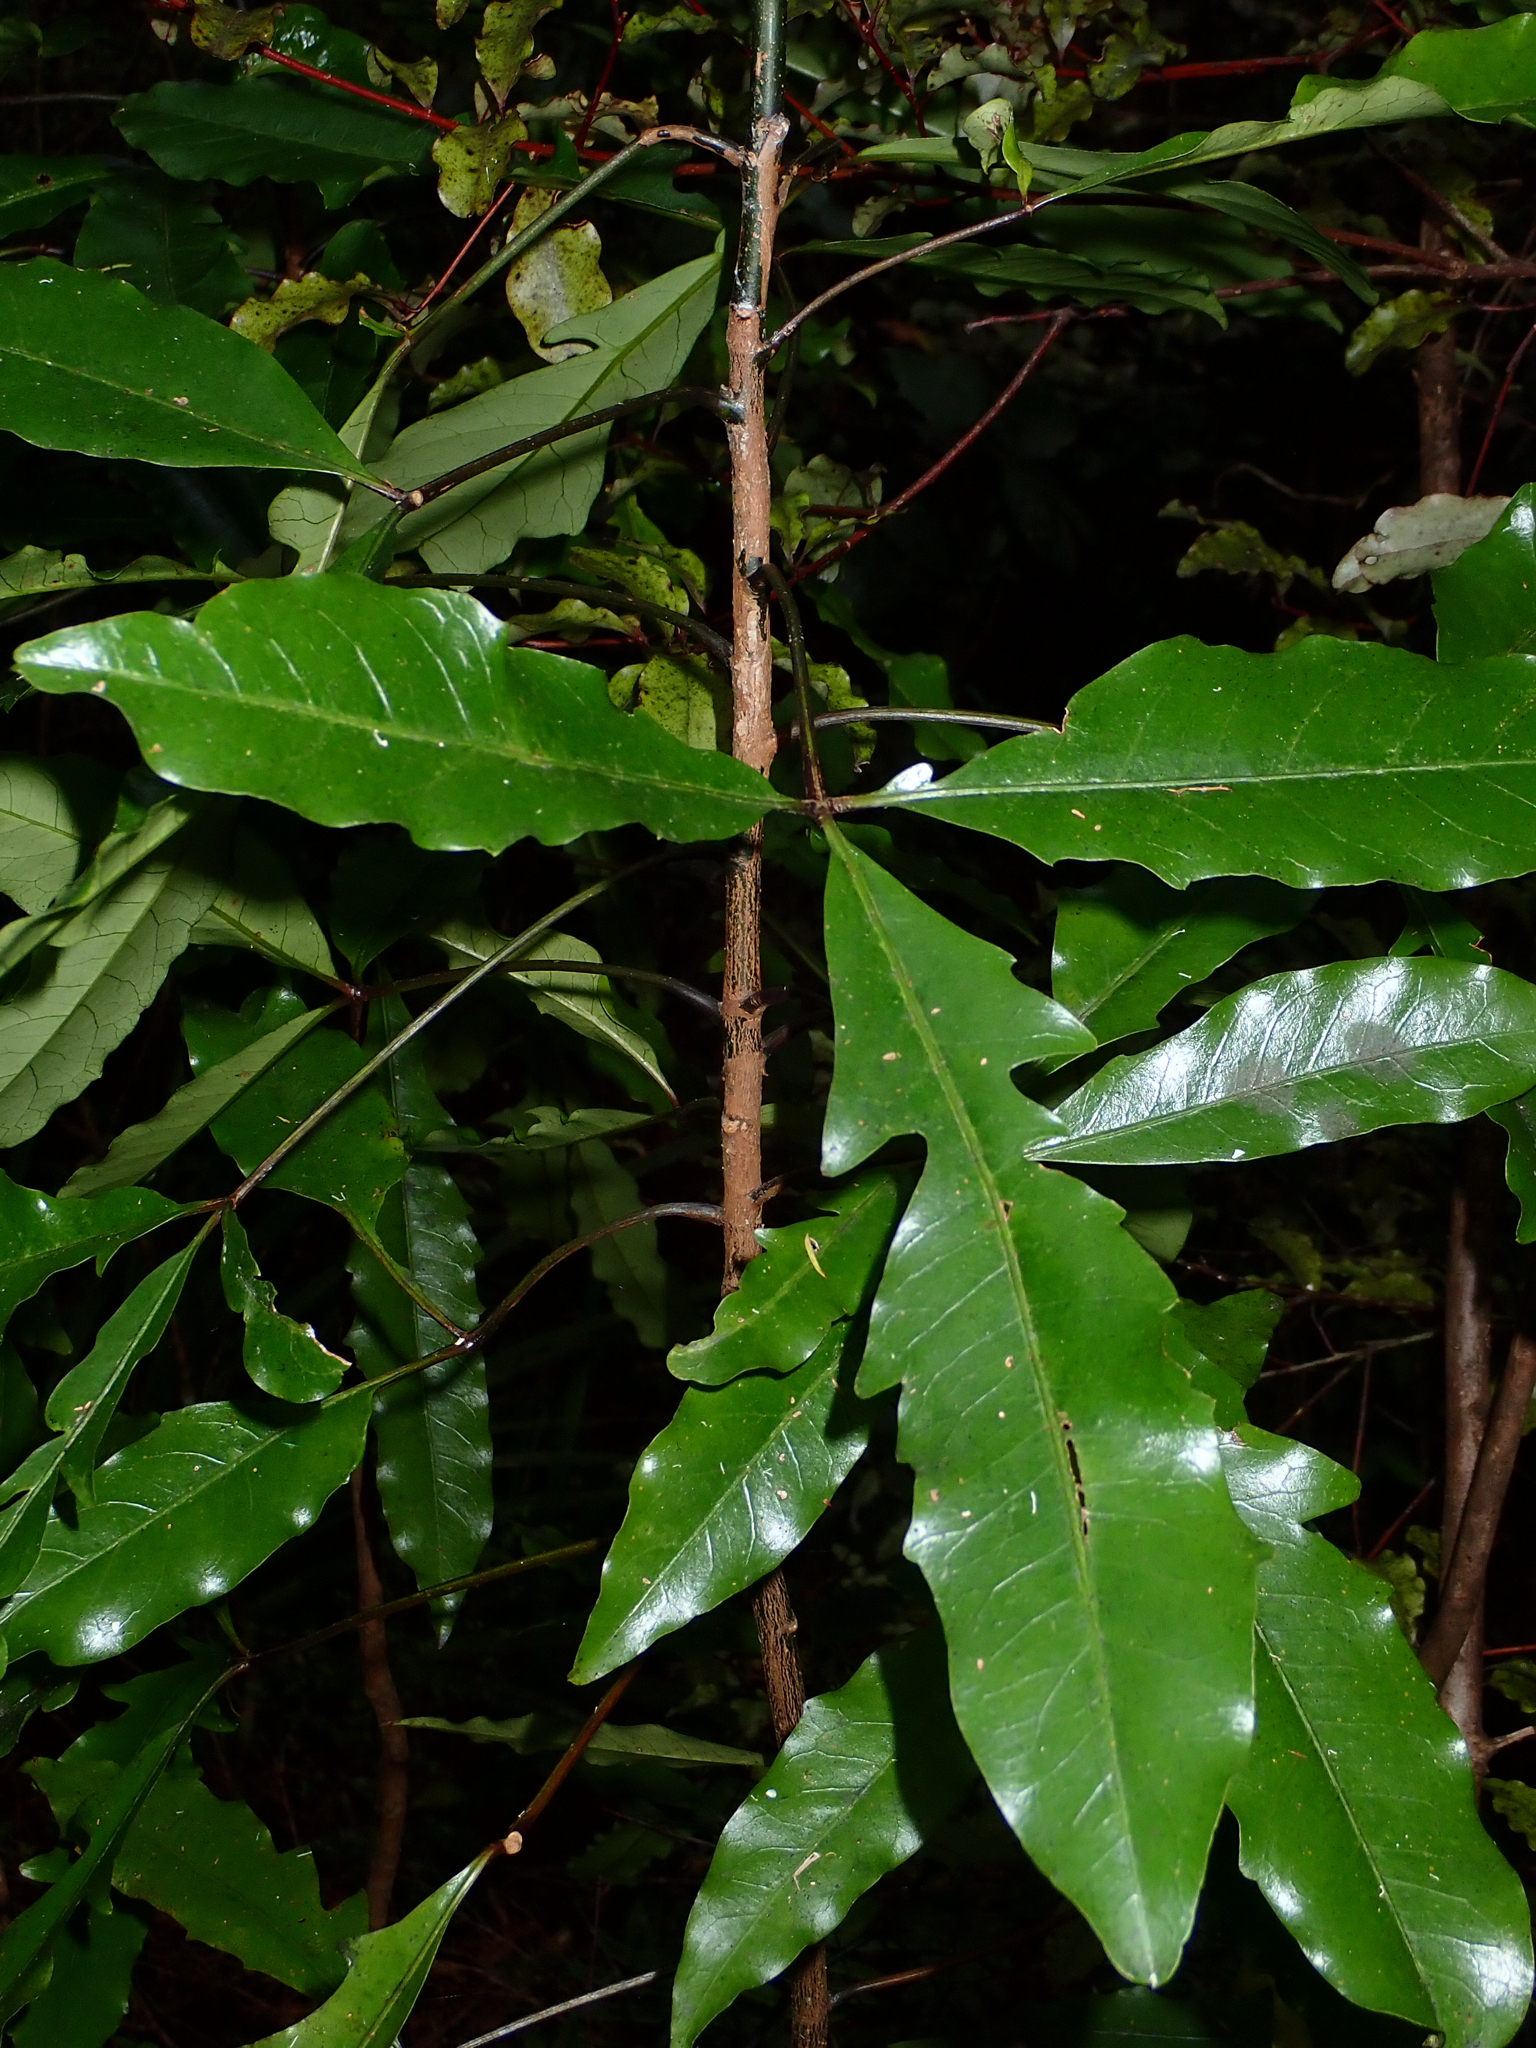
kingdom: Plantae
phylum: Tracheophyta
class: Magnoliopsida
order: Apiales
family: Araliaceae
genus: Raukaua
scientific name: Raukaua edgerleyi
